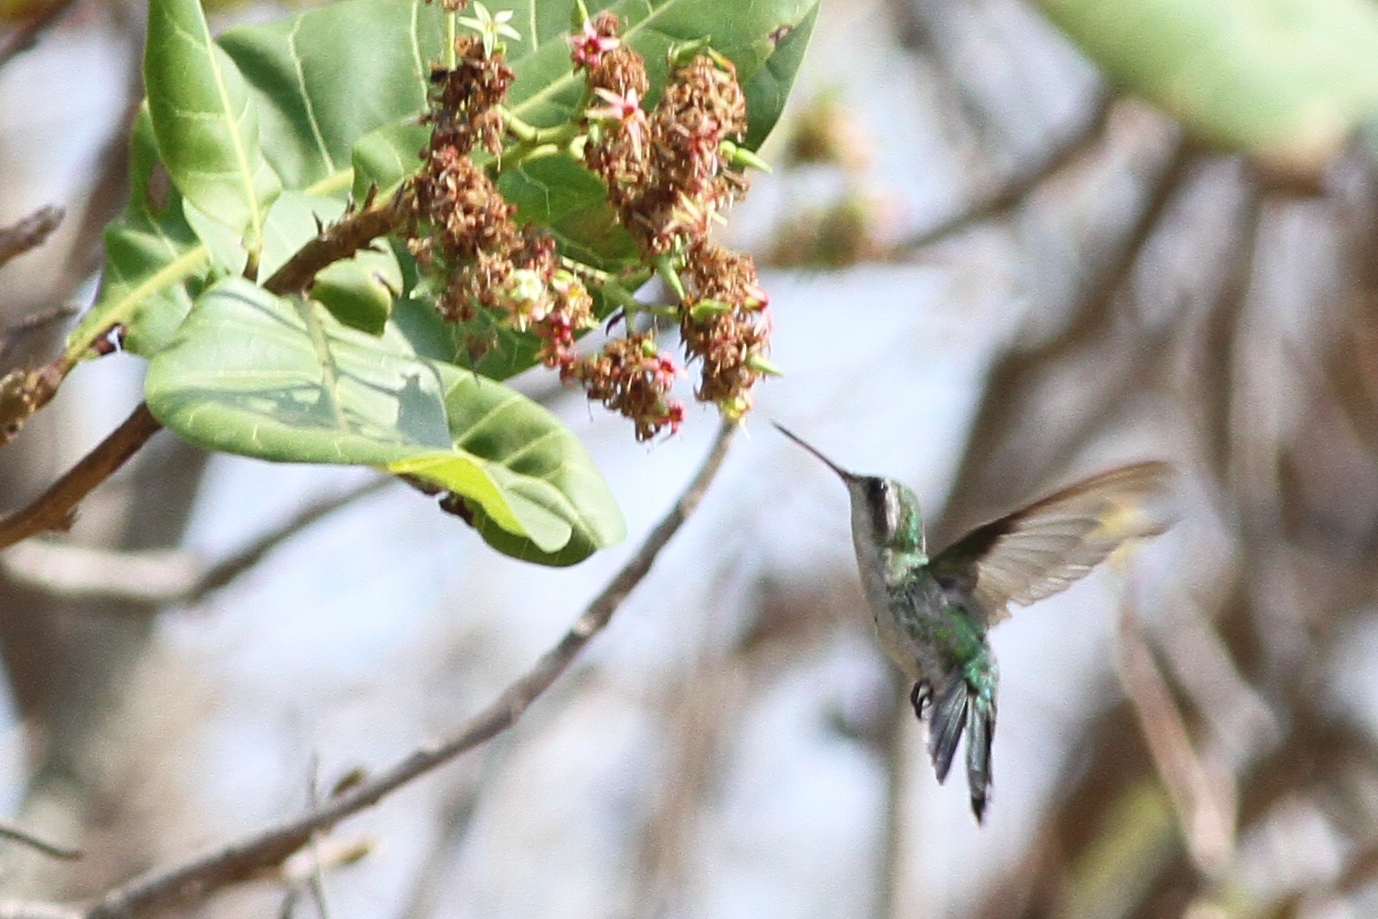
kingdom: Animalia
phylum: Chordata
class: Aves
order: Apodiformes
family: Trochilidae
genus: Cynanthus
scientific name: Cynanthus canivetii
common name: Canivet's emerald
